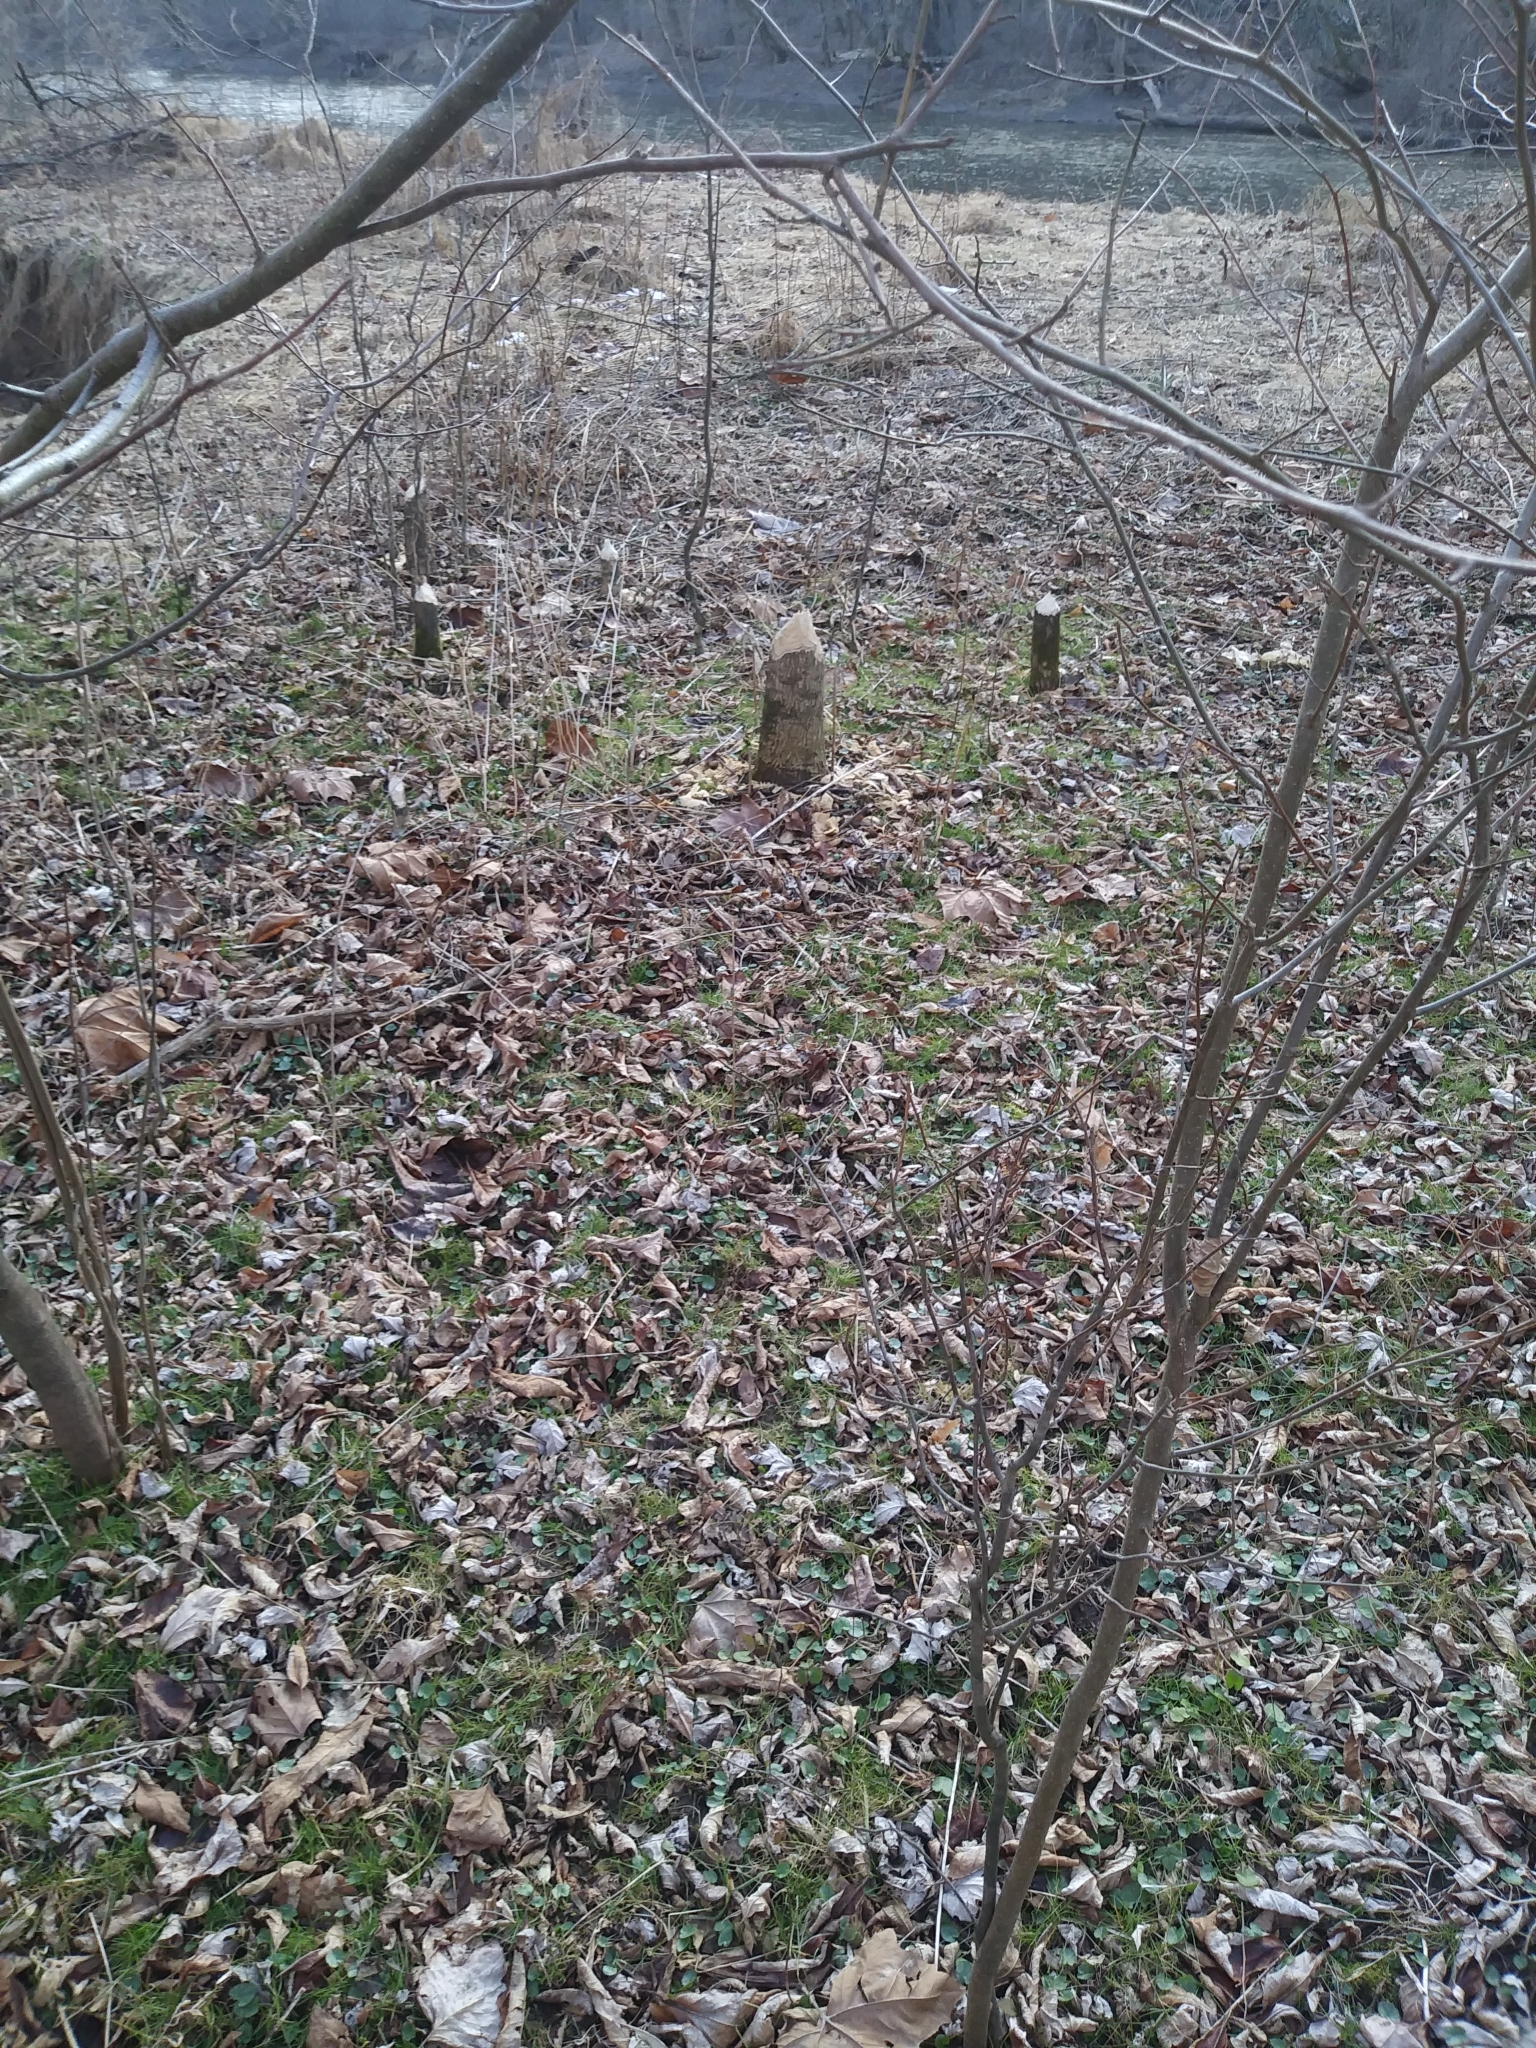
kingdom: Animalia
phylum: Chordata
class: Mammalia
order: Rodentia
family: Castoridae
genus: Castor
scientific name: Castor canadensis
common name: American beaver
